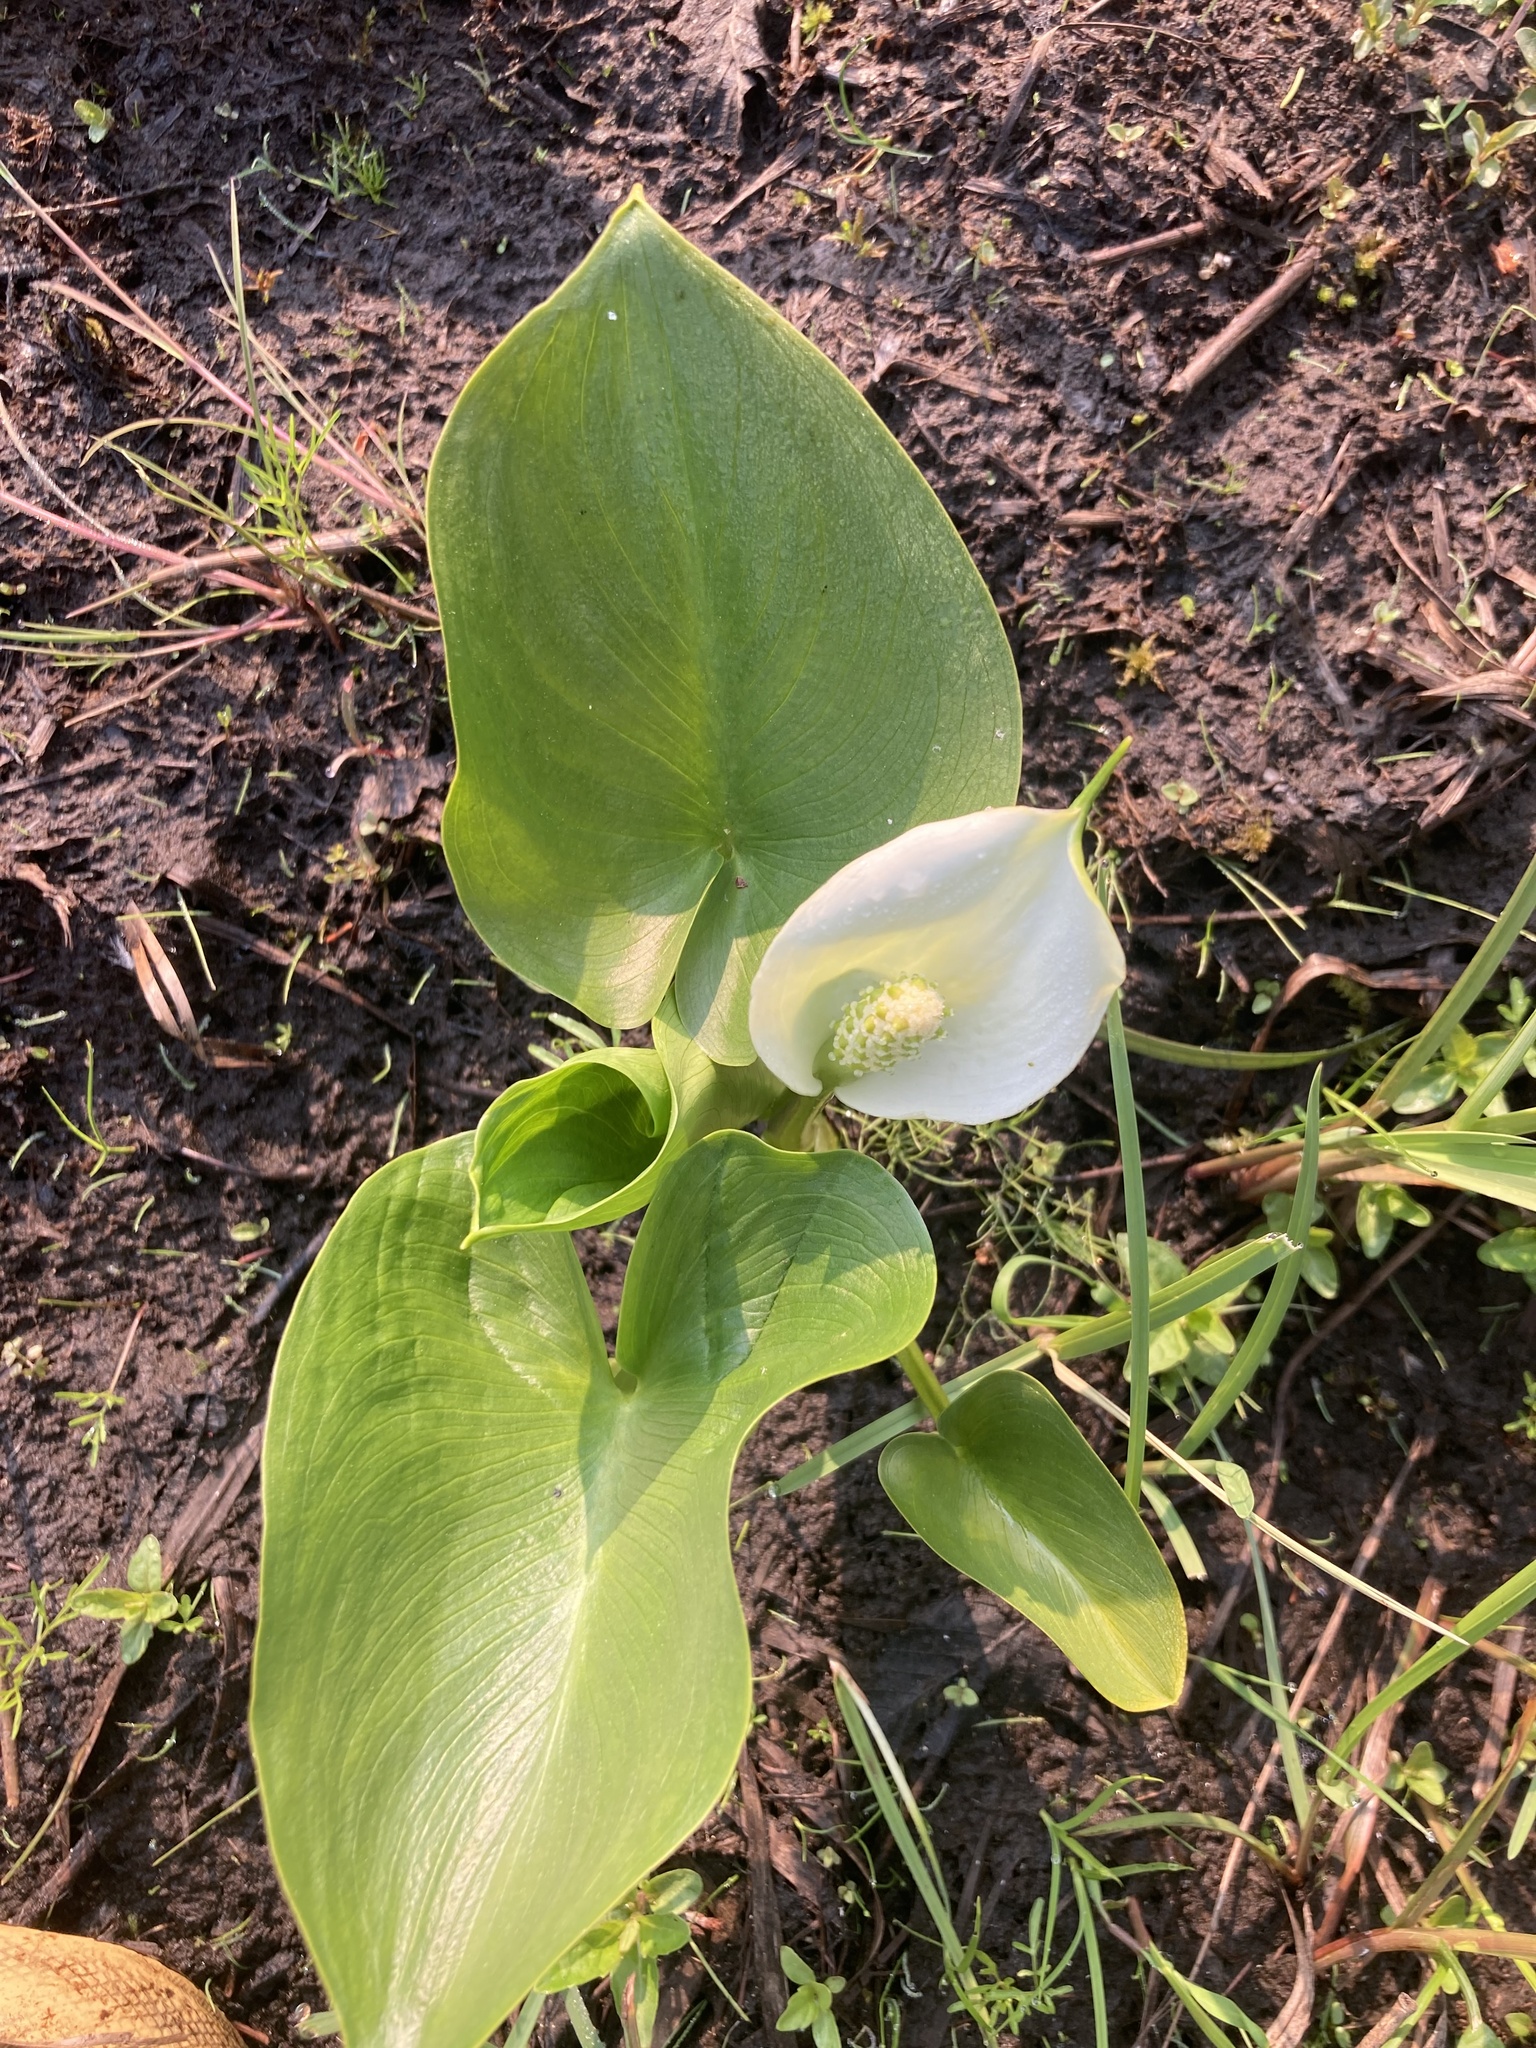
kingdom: Plantae
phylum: Tracheophyta
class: Liliopsida
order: Alismatales
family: Araceae
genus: Calla
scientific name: Calla palustris
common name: Bog arum
